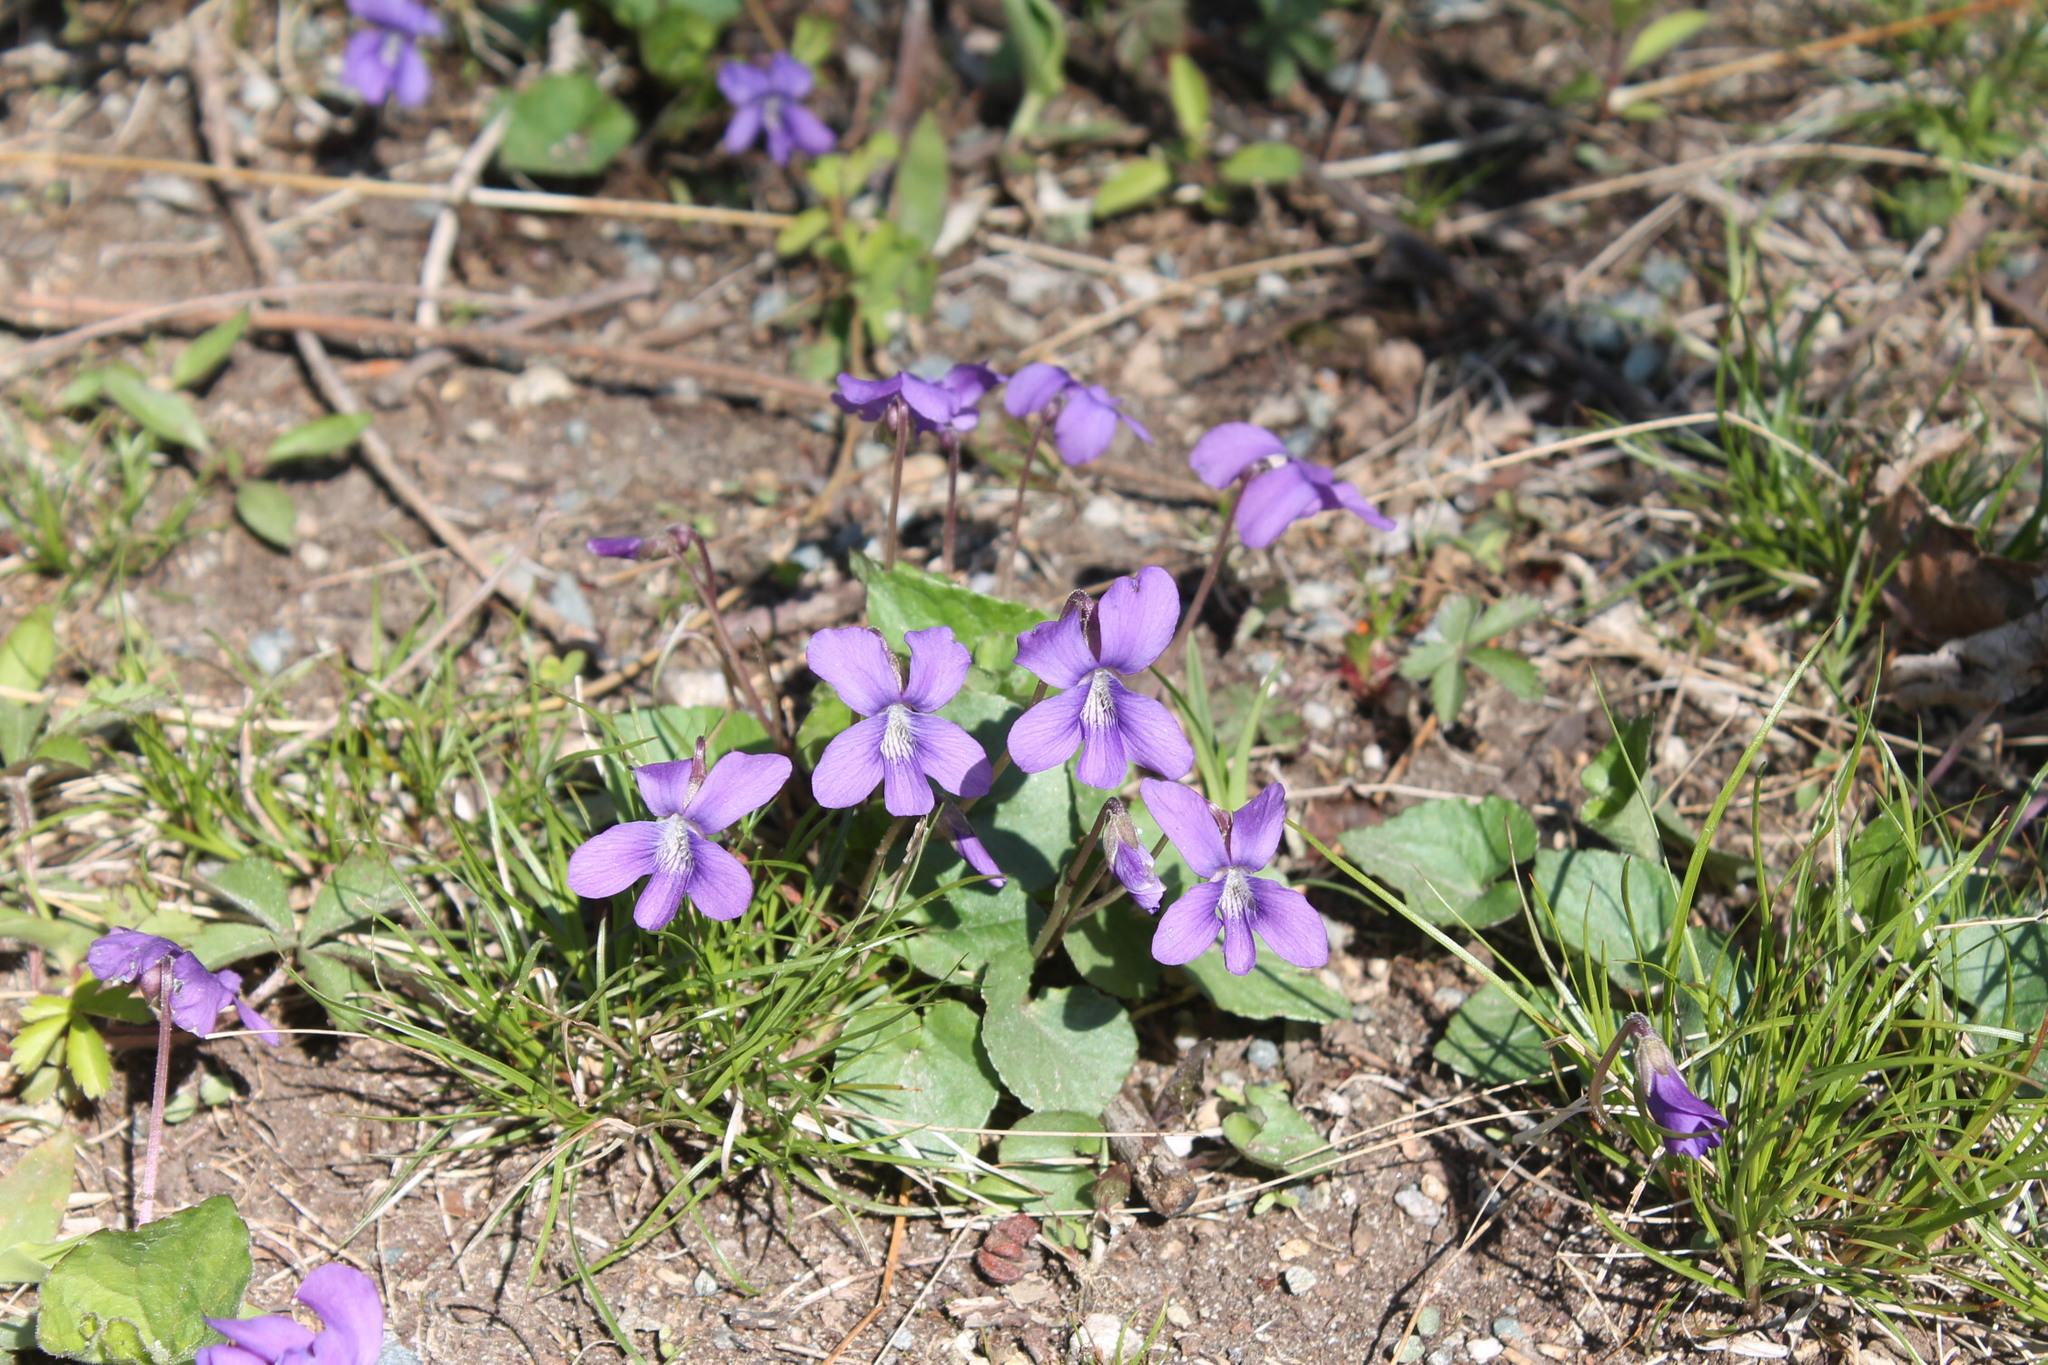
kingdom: Plantae
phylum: Tracheophyta
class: Magnoliopsida
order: Malpighiales
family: Violaceae
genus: Viola
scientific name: Viola sororia
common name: Dooryard violet
